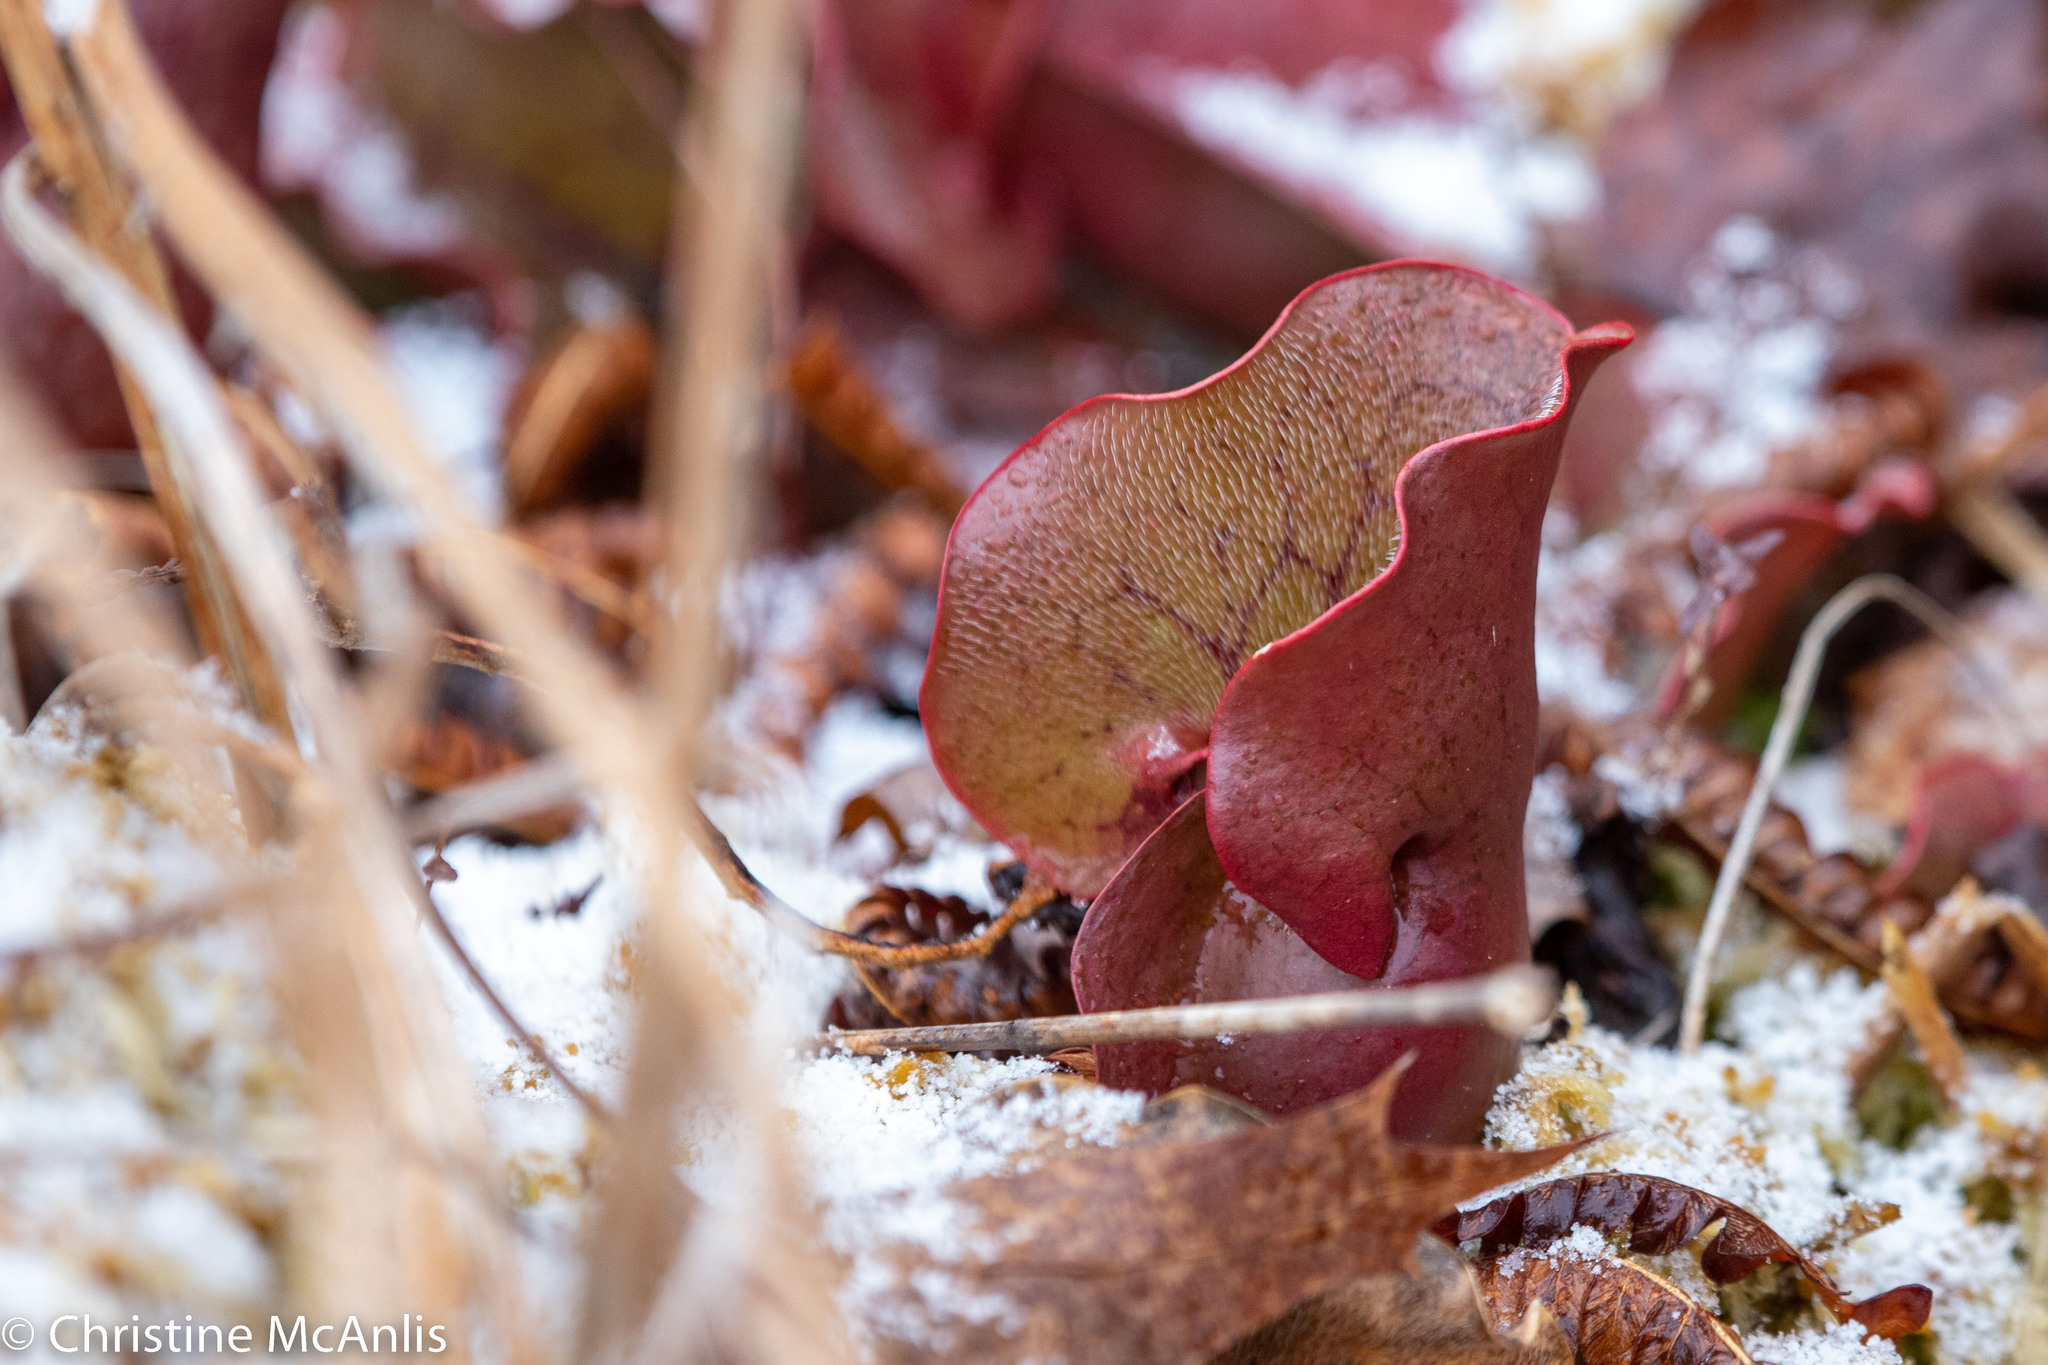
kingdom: Plantae
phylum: Tracheophyta
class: Magnoliopsida
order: Ericales
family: Sarraceniaceae
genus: Sarracenia
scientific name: Sarracenia purpurea
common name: Pitcherplant
